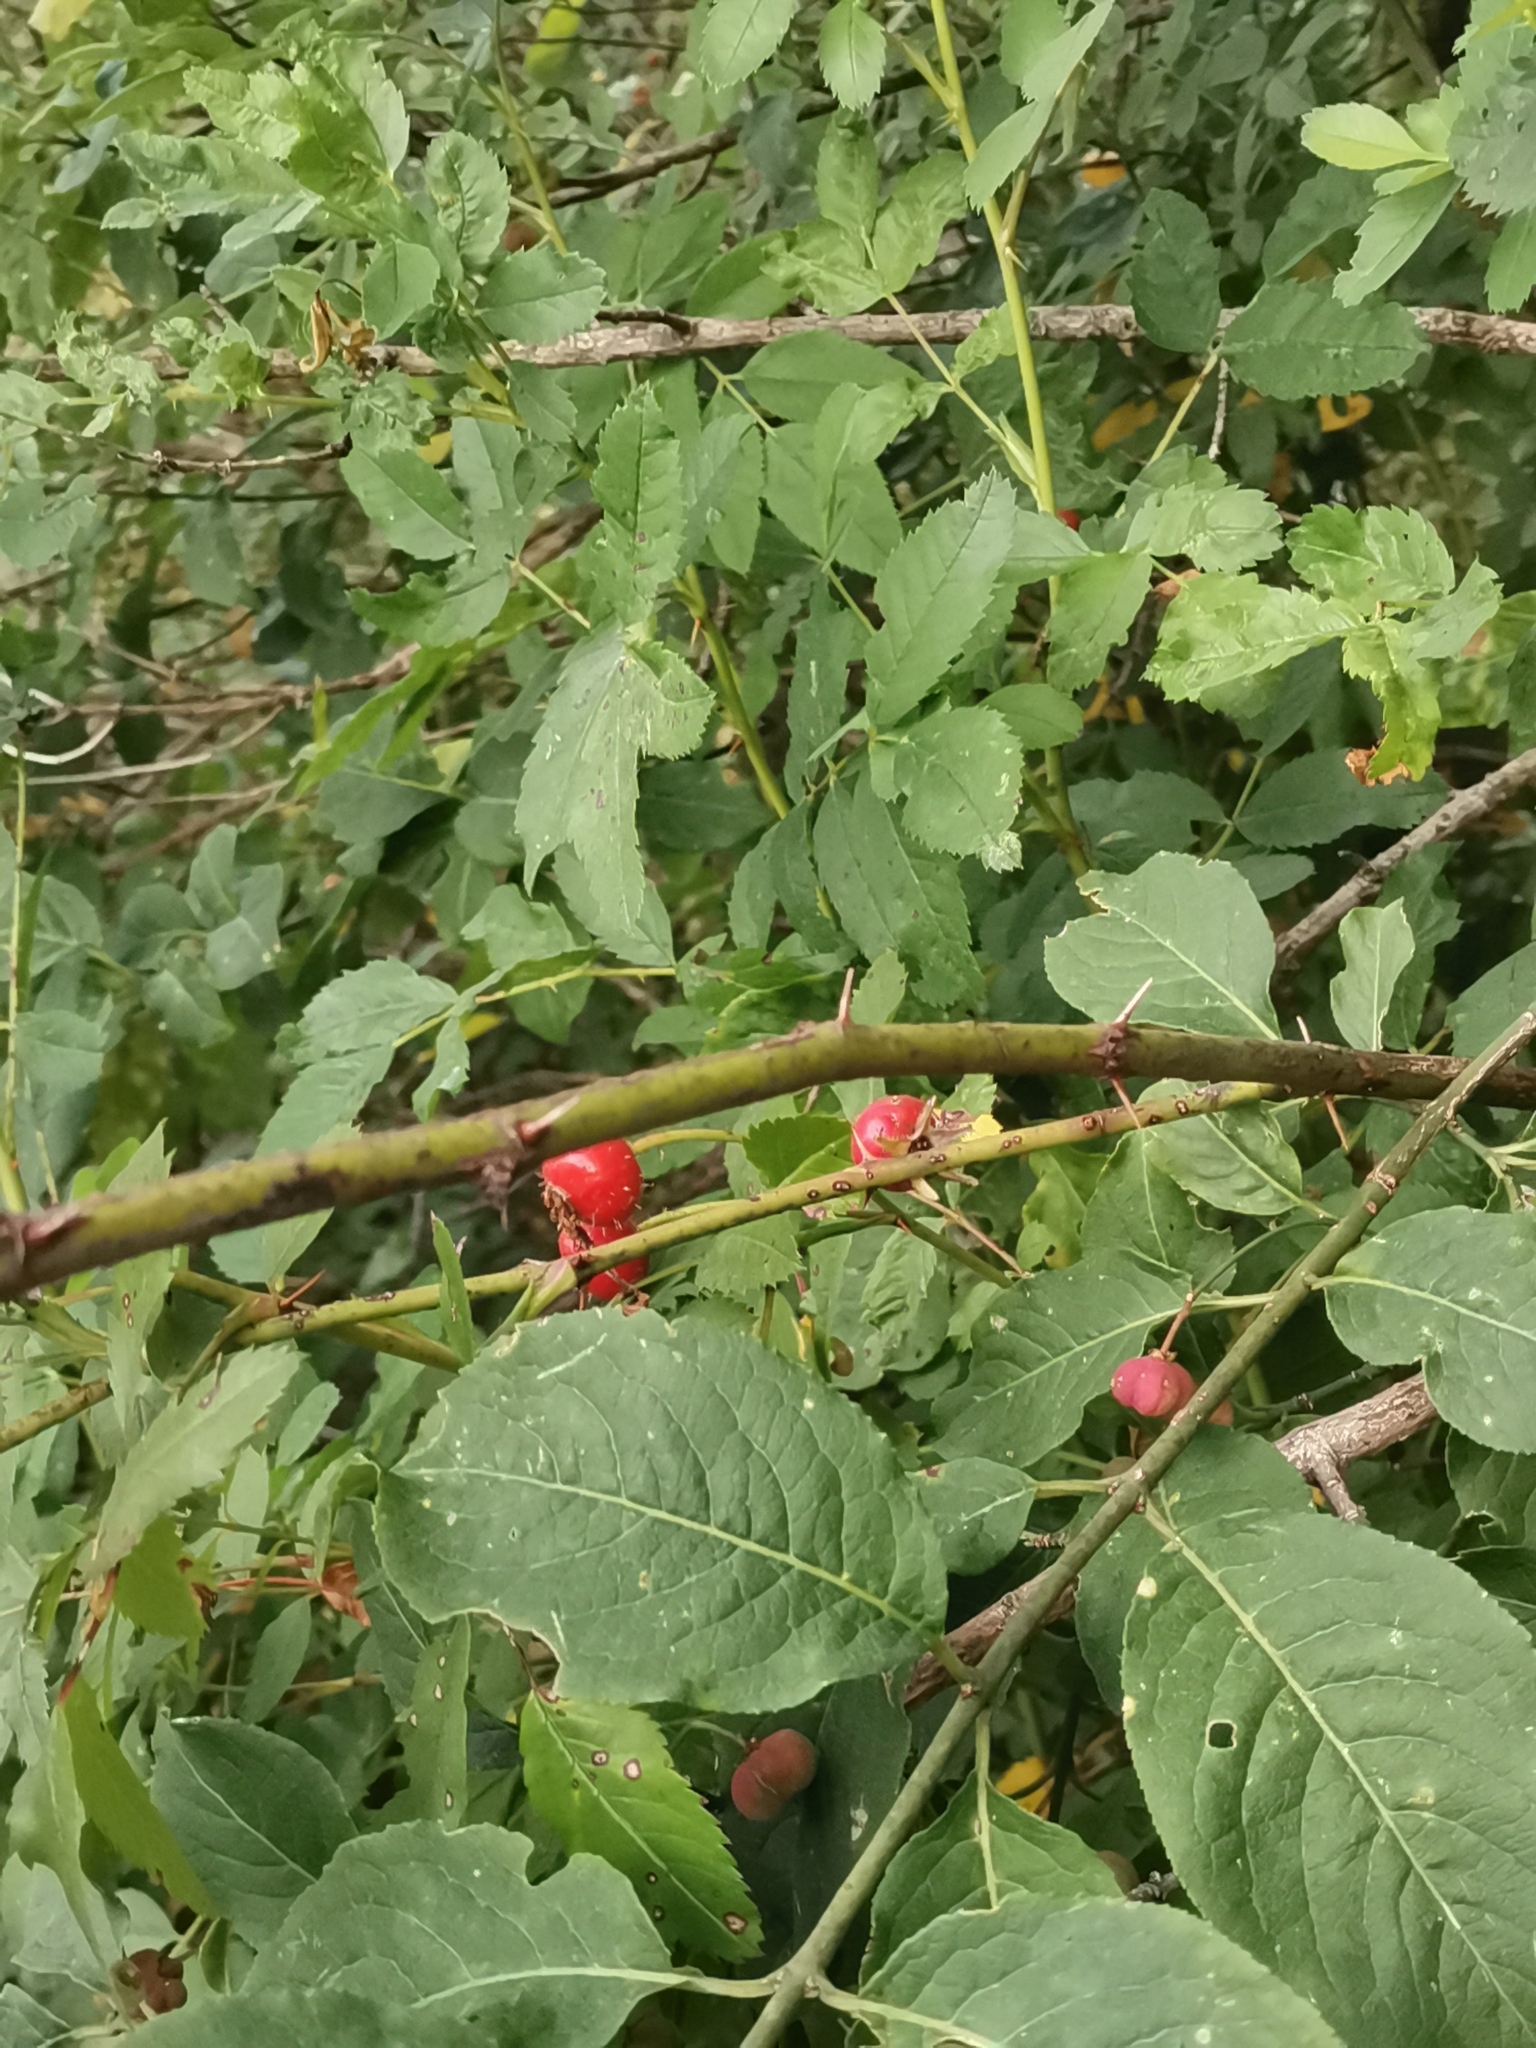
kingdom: Plantae
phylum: Tracheophyta
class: Magnoliopsida
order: Rosales
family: Rosaceae
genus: Rosa
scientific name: Rosa rugosa
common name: Japanese rose
